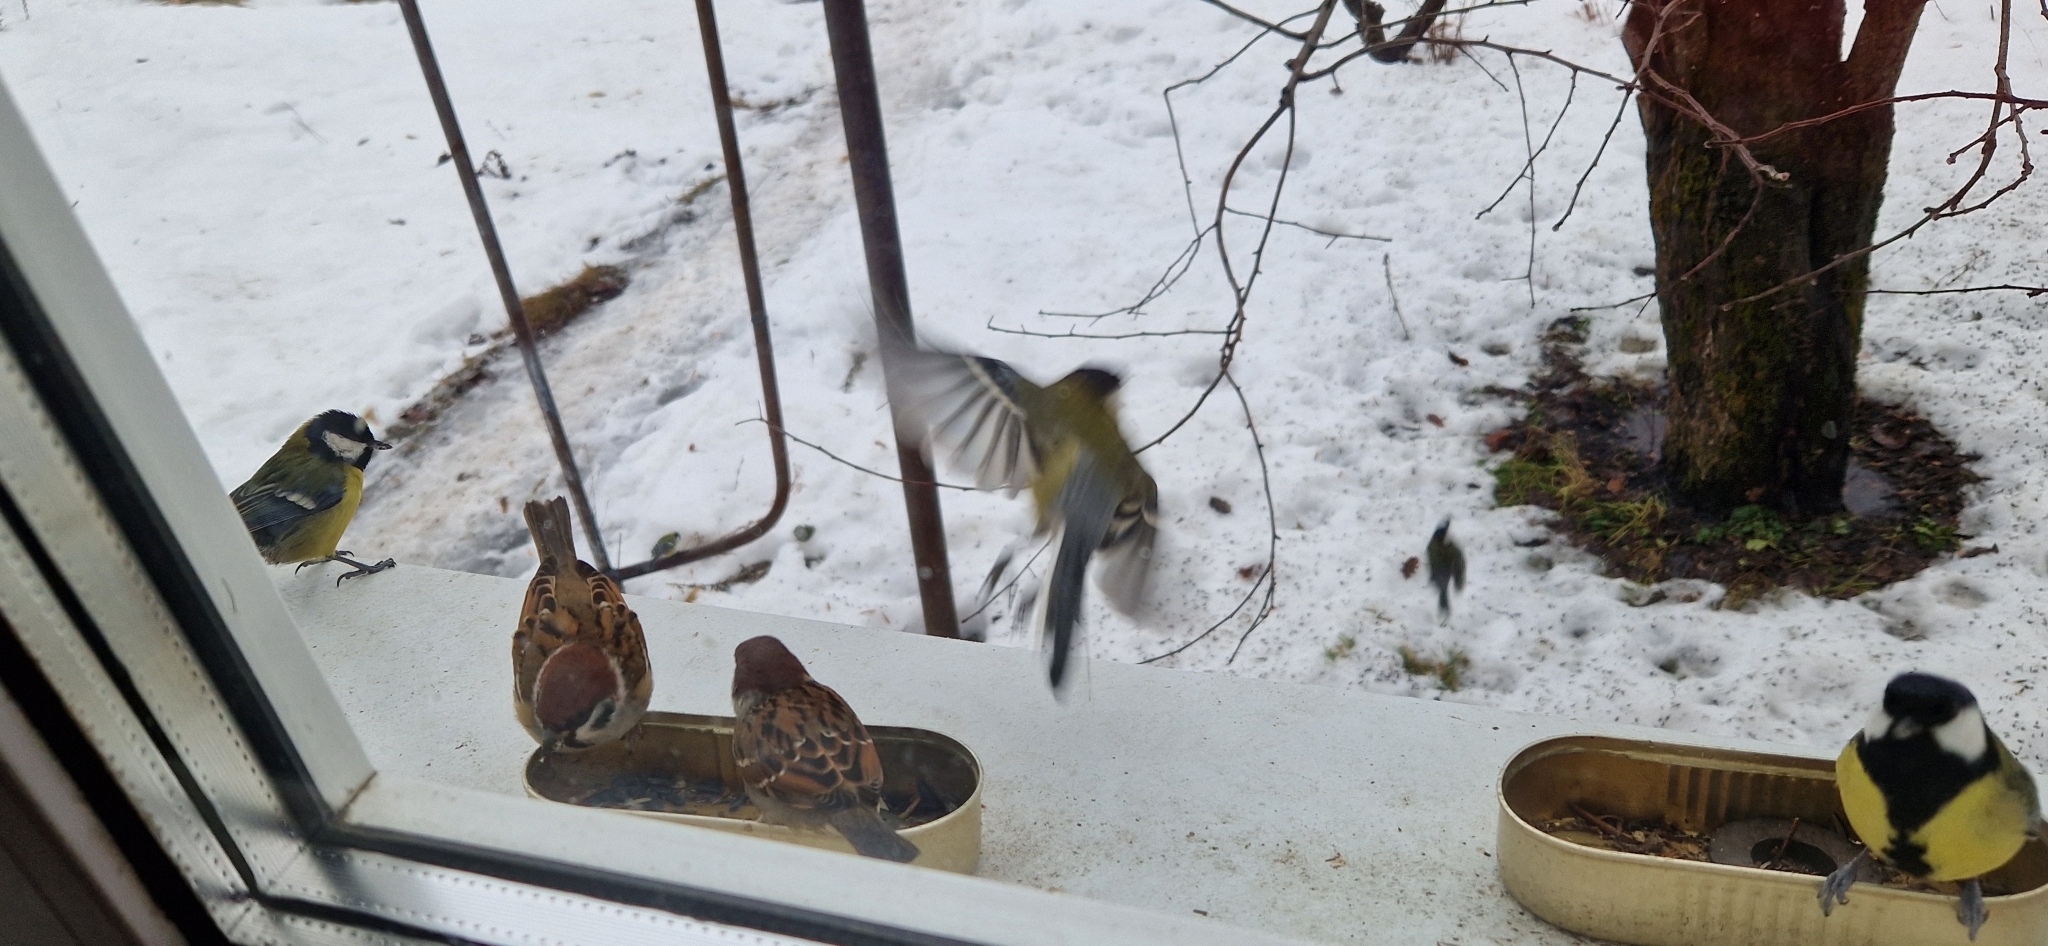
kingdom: Animalia
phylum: Chordata
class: Aves
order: Passeriformes
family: Paridae
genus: Parus
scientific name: Parus major
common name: Great tit
